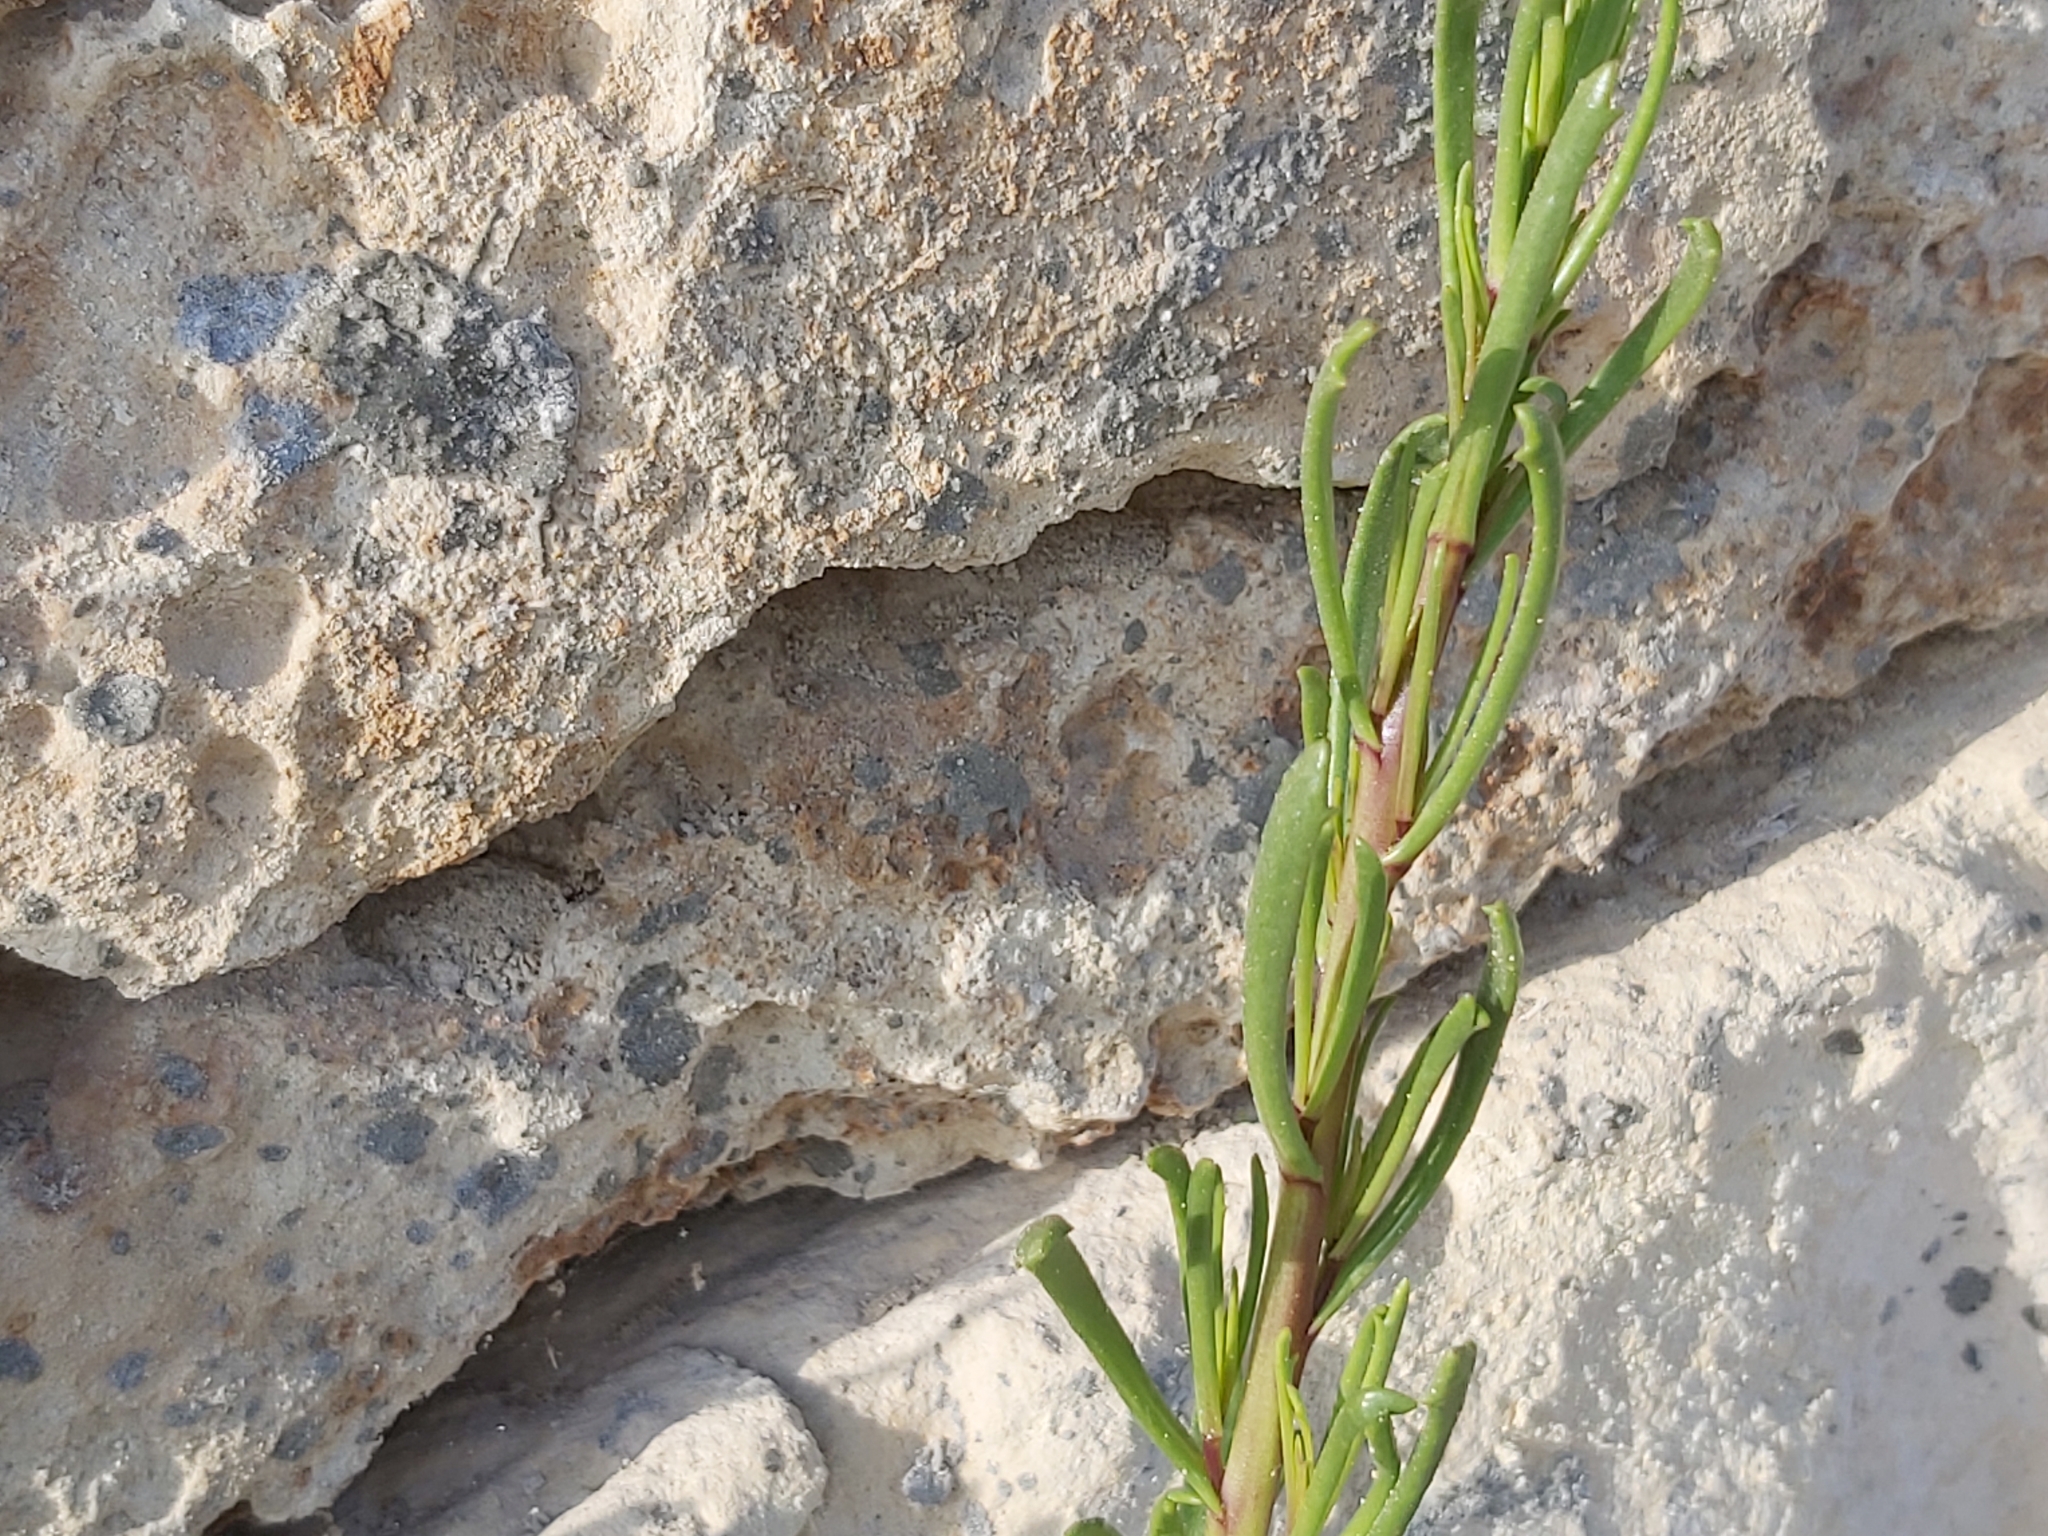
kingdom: Plantae
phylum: Tracheophyta
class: Magnoliopsida
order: Asterales
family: Asteraceae
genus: Limbarda
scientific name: Limbarda crithmoides
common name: Golden samphire
